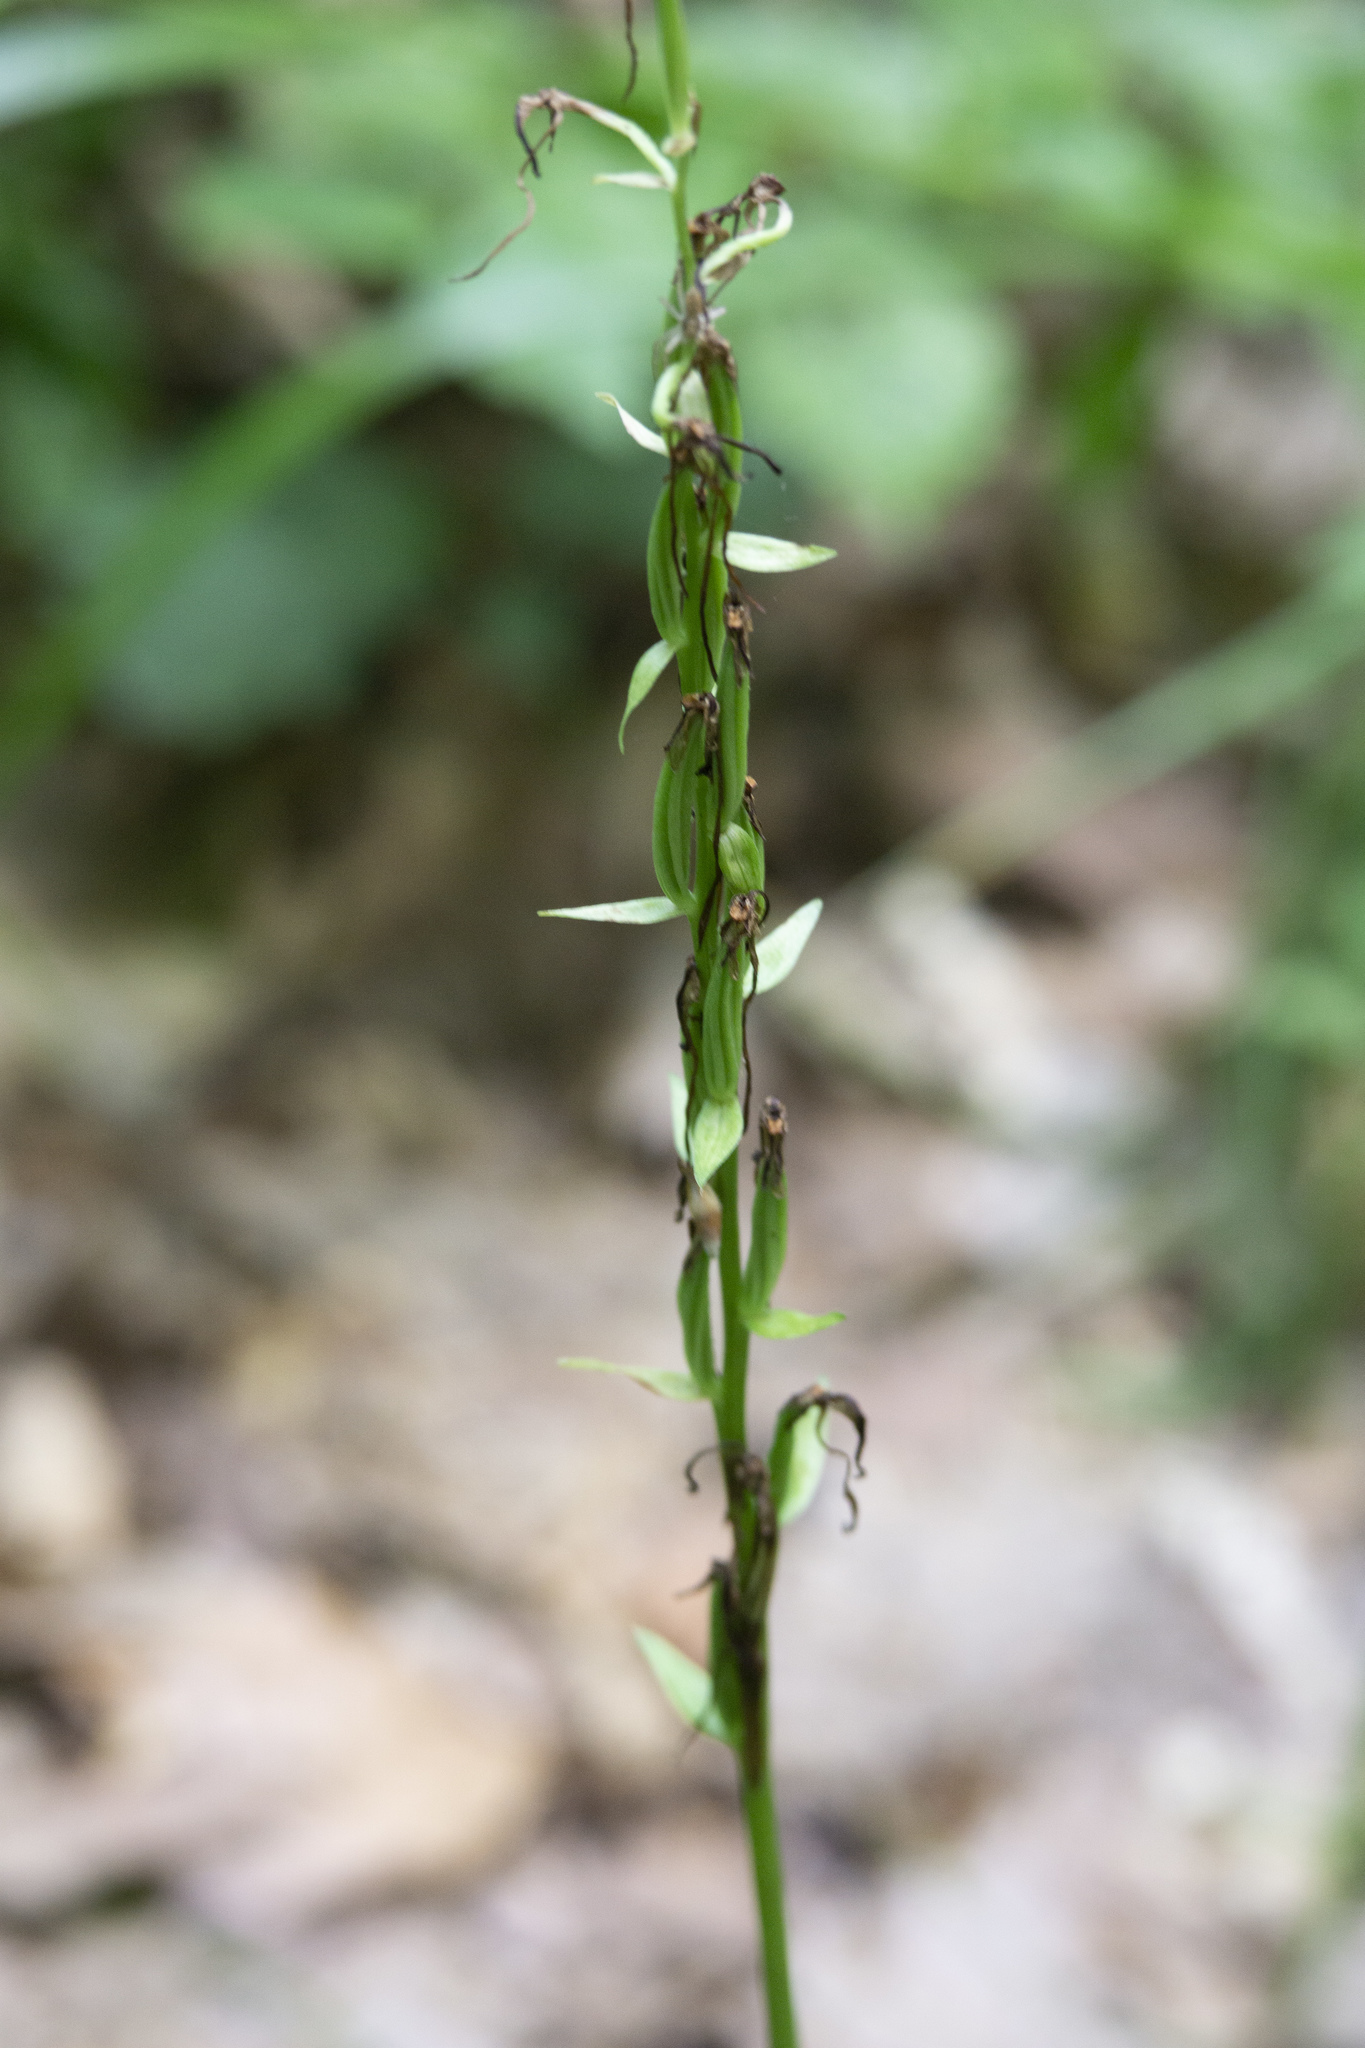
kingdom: Plantae
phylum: Tracheophyta
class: Liliopsida
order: Asparagales
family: Orchidaceae
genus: Platanthera
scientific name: Platanthera bifolia
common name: Lesser butterfly-orchid
